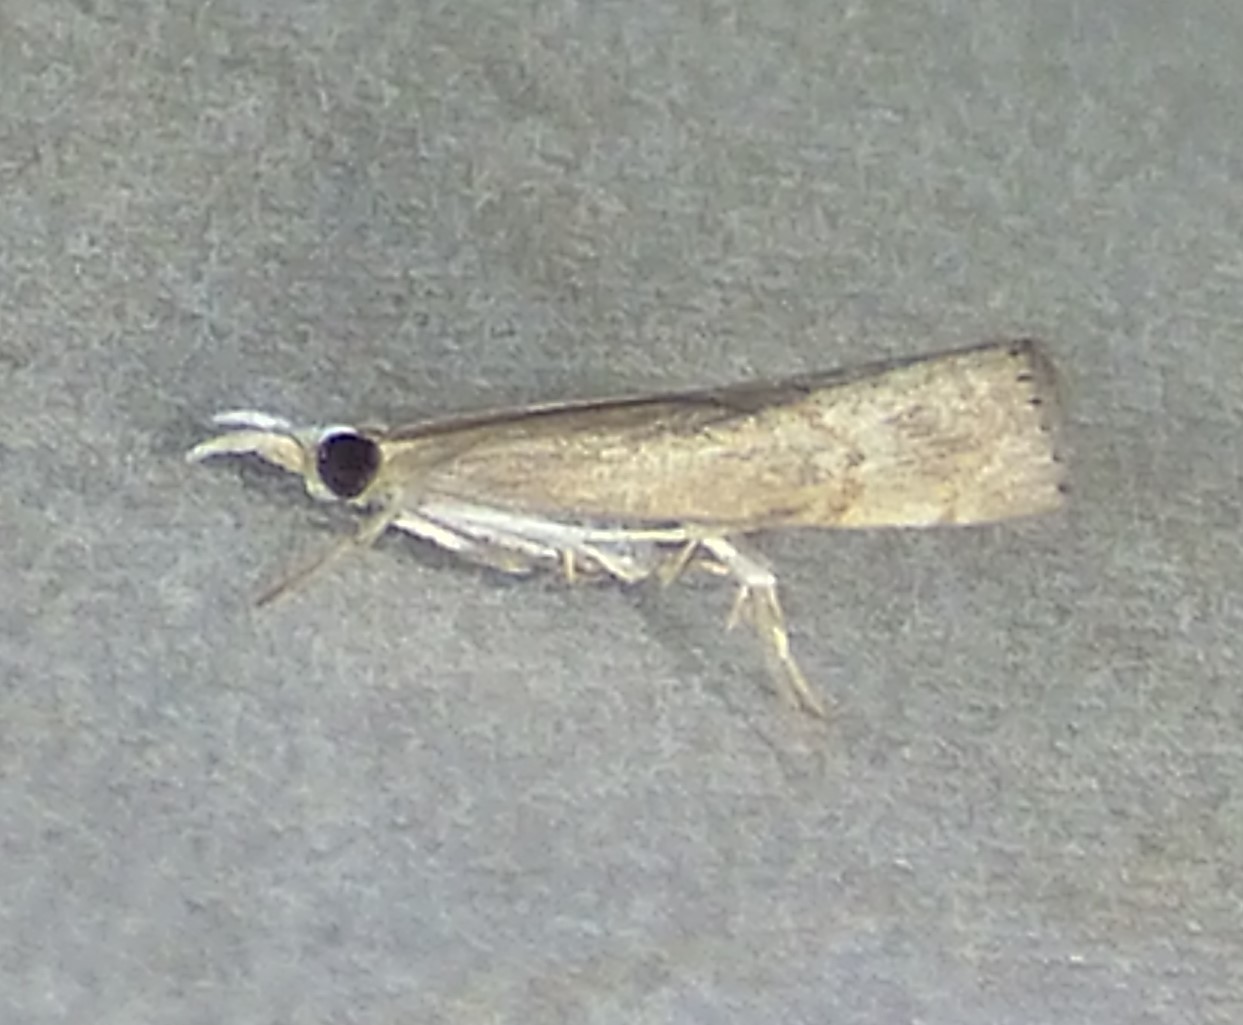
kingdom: Animalia
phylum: Arthropoda
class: Insecta
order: Lepidoptera
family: Crambidae
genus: Parapediasia
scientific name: Parapediasia teterellus
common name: Bluegrass webworm moth
